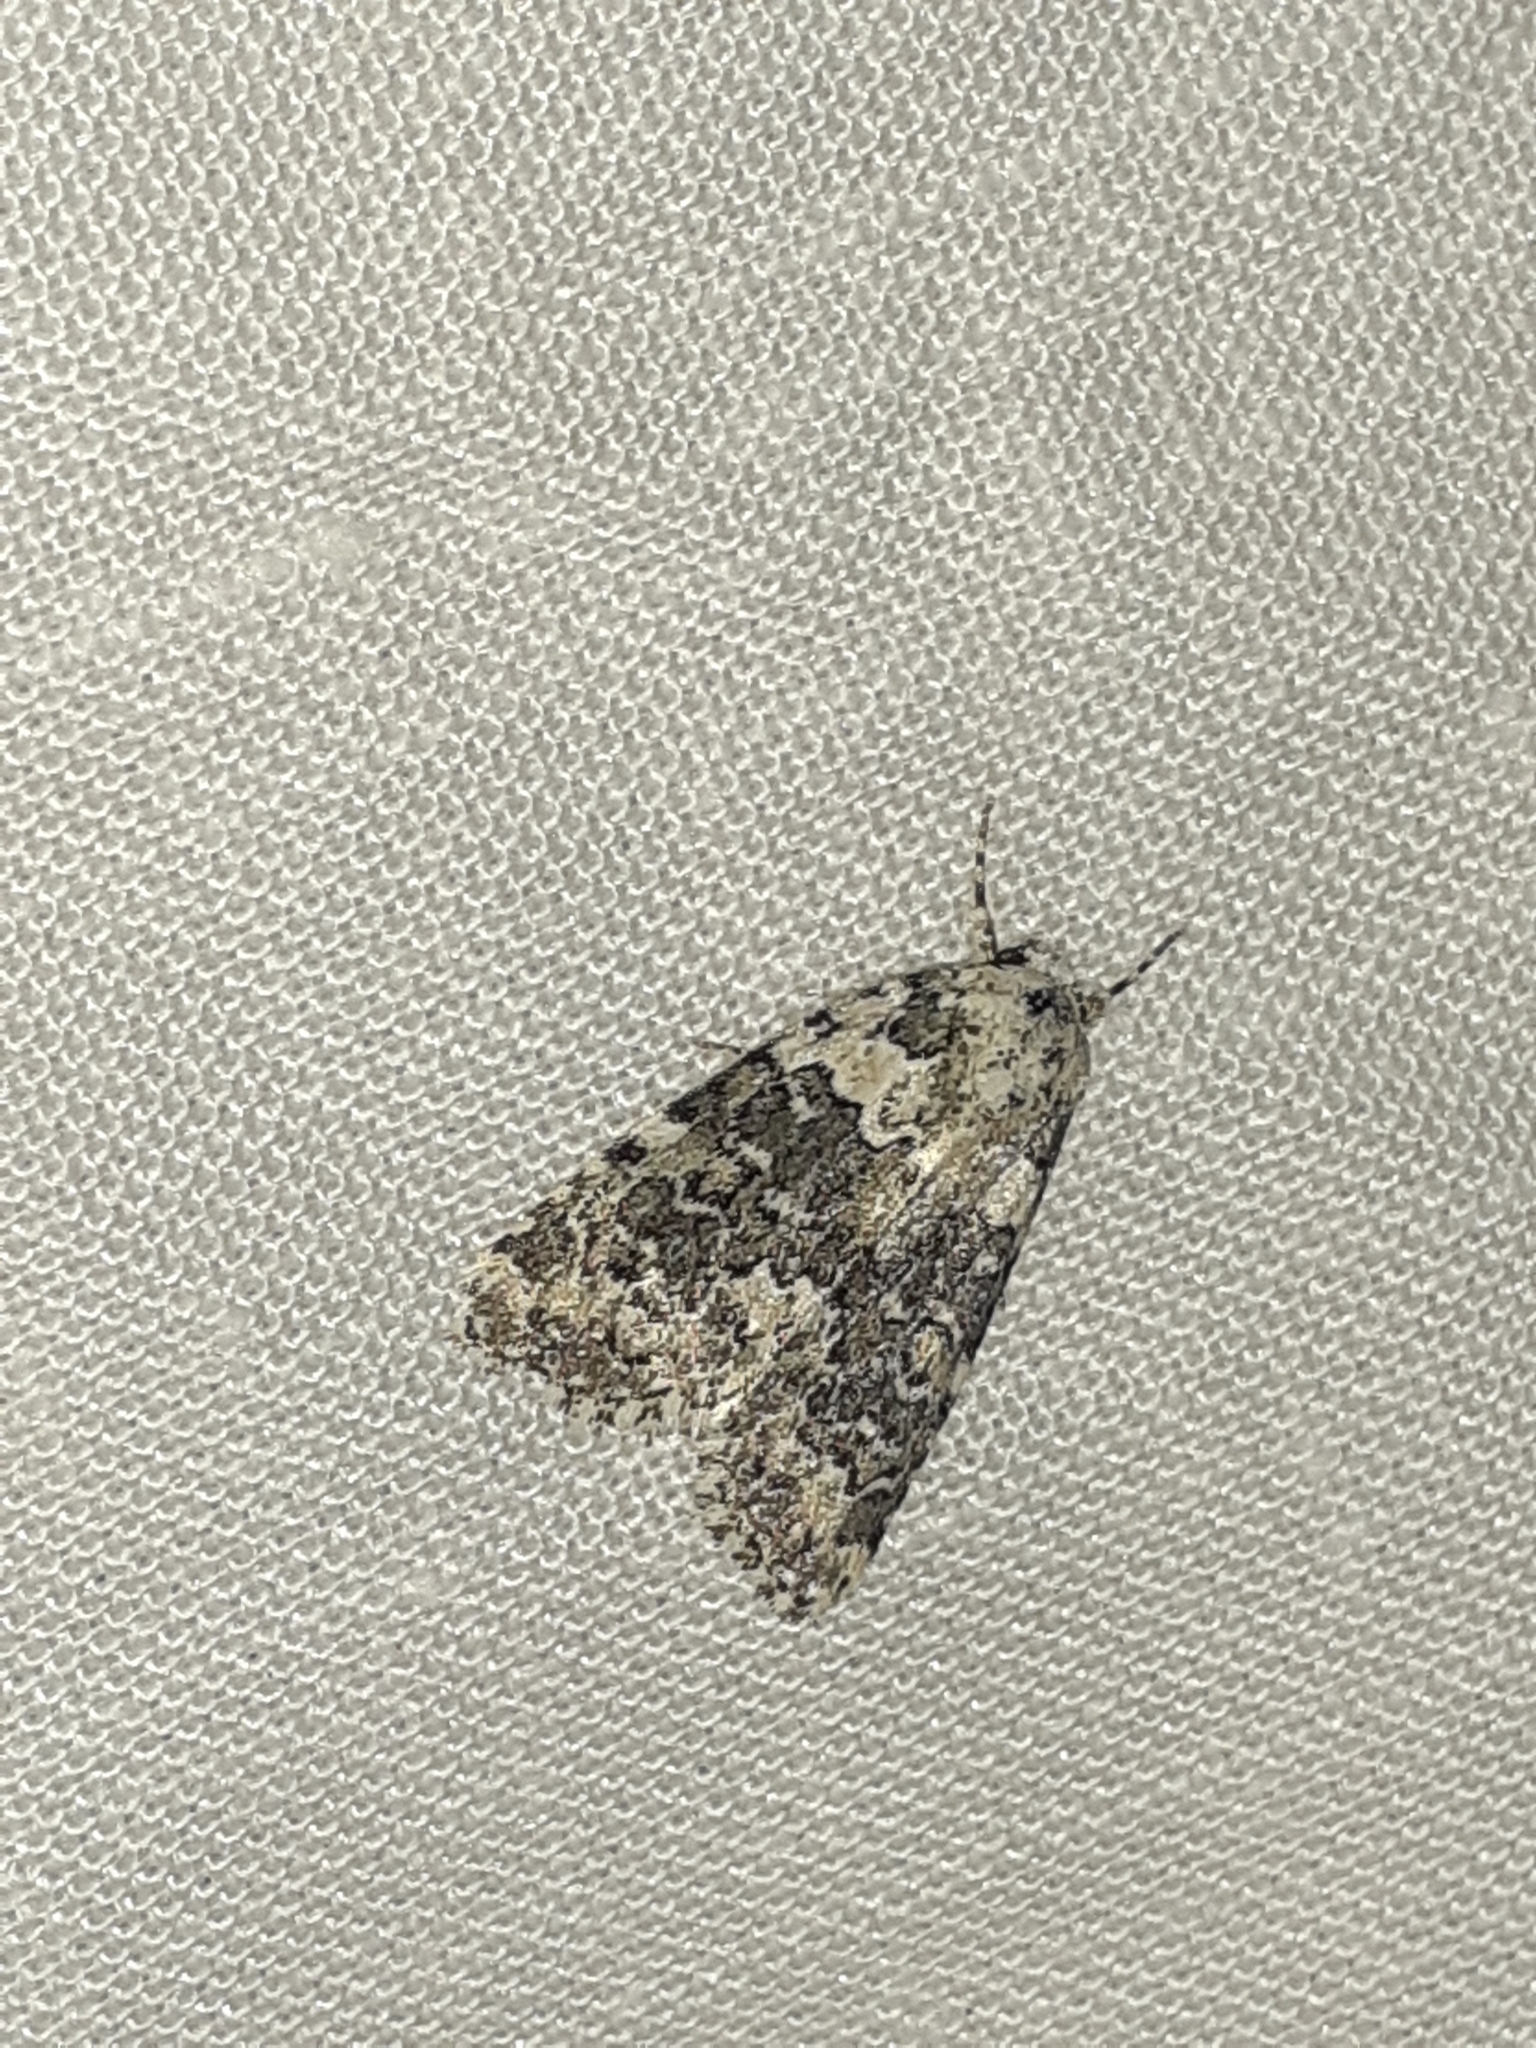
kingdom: Animalia
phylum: Arthropoda
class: Insecta
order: Lepidoptera
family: Noctuidae
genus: Bryophila
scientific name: Bryophila domestica
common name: Marbled beauty
